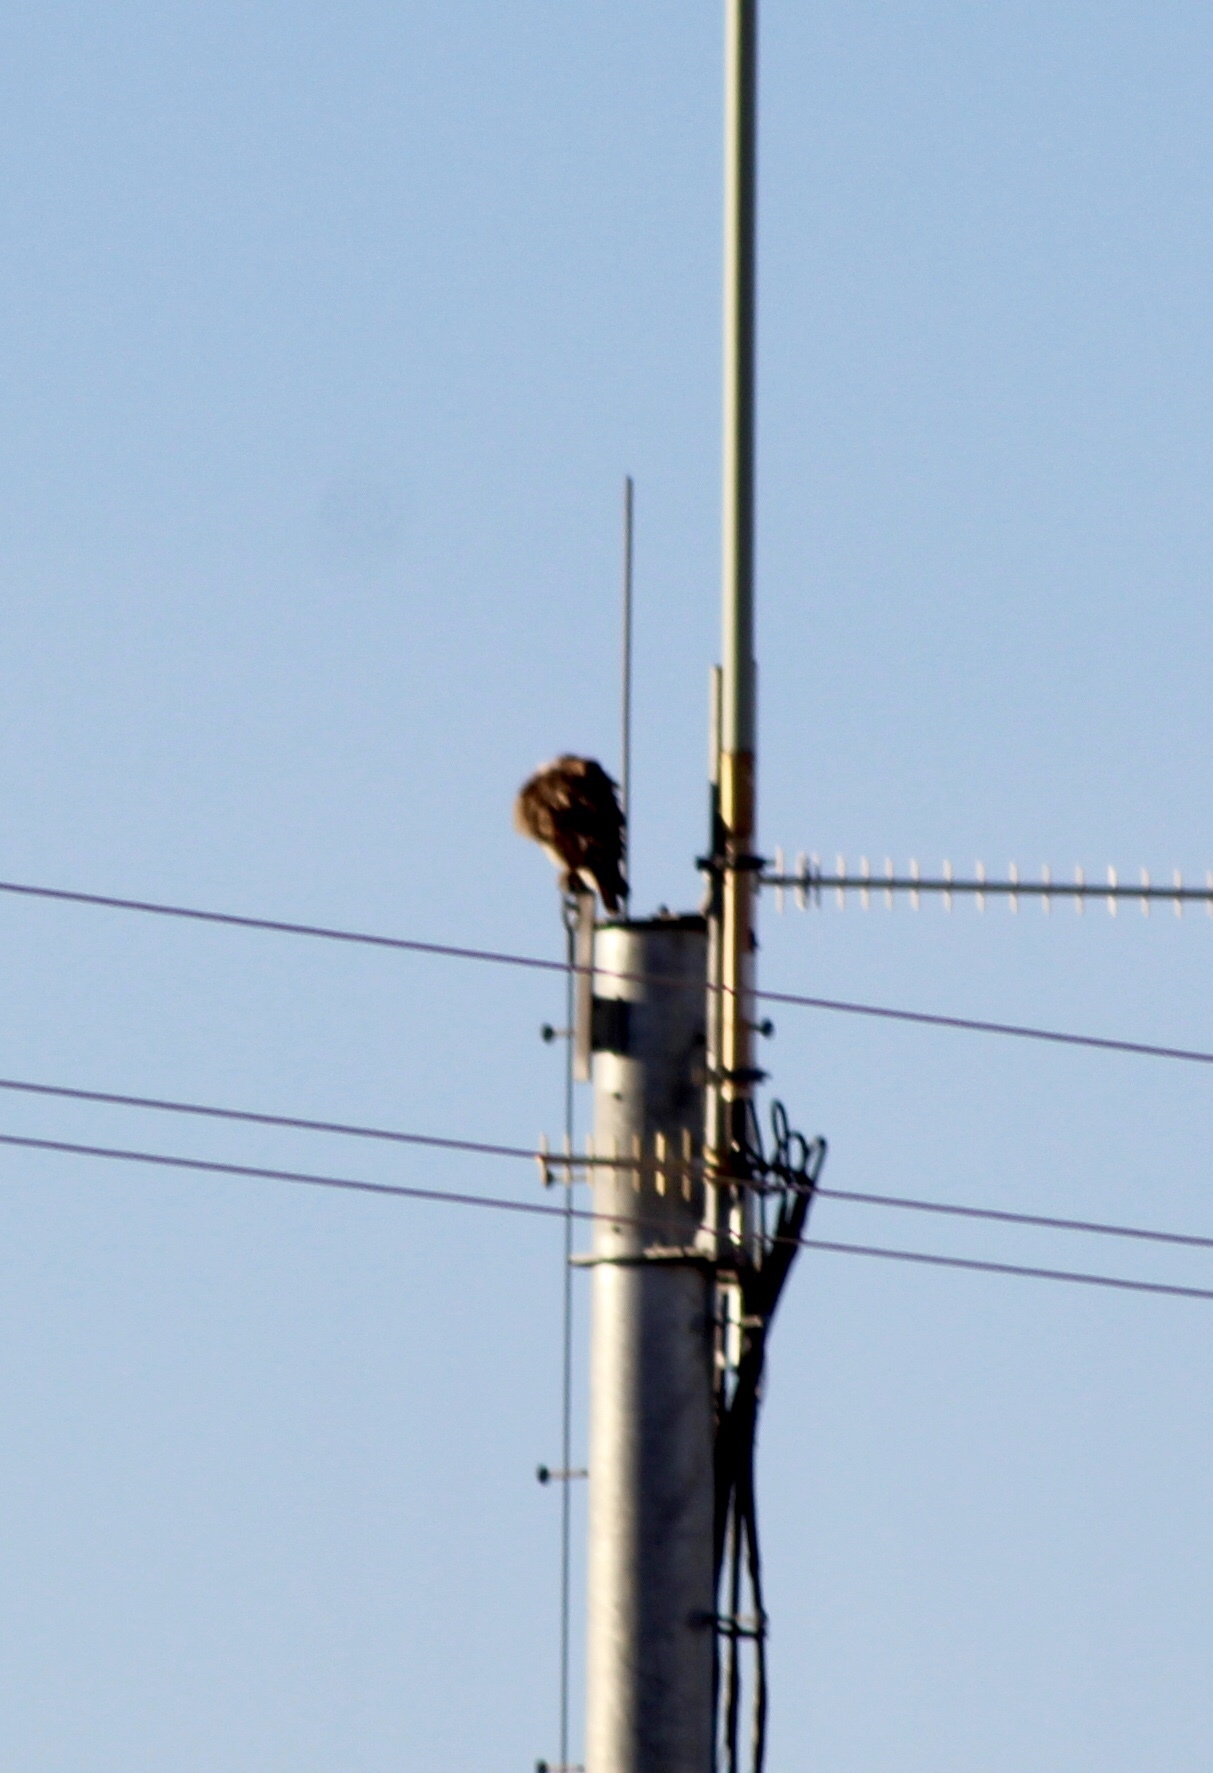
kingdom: Animalia
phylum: Chordata
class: Aves
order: Accipitriformes
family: Accipitridae
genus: Buteo
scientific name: Buteo jamaicensis
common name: Red-tailed hawk
